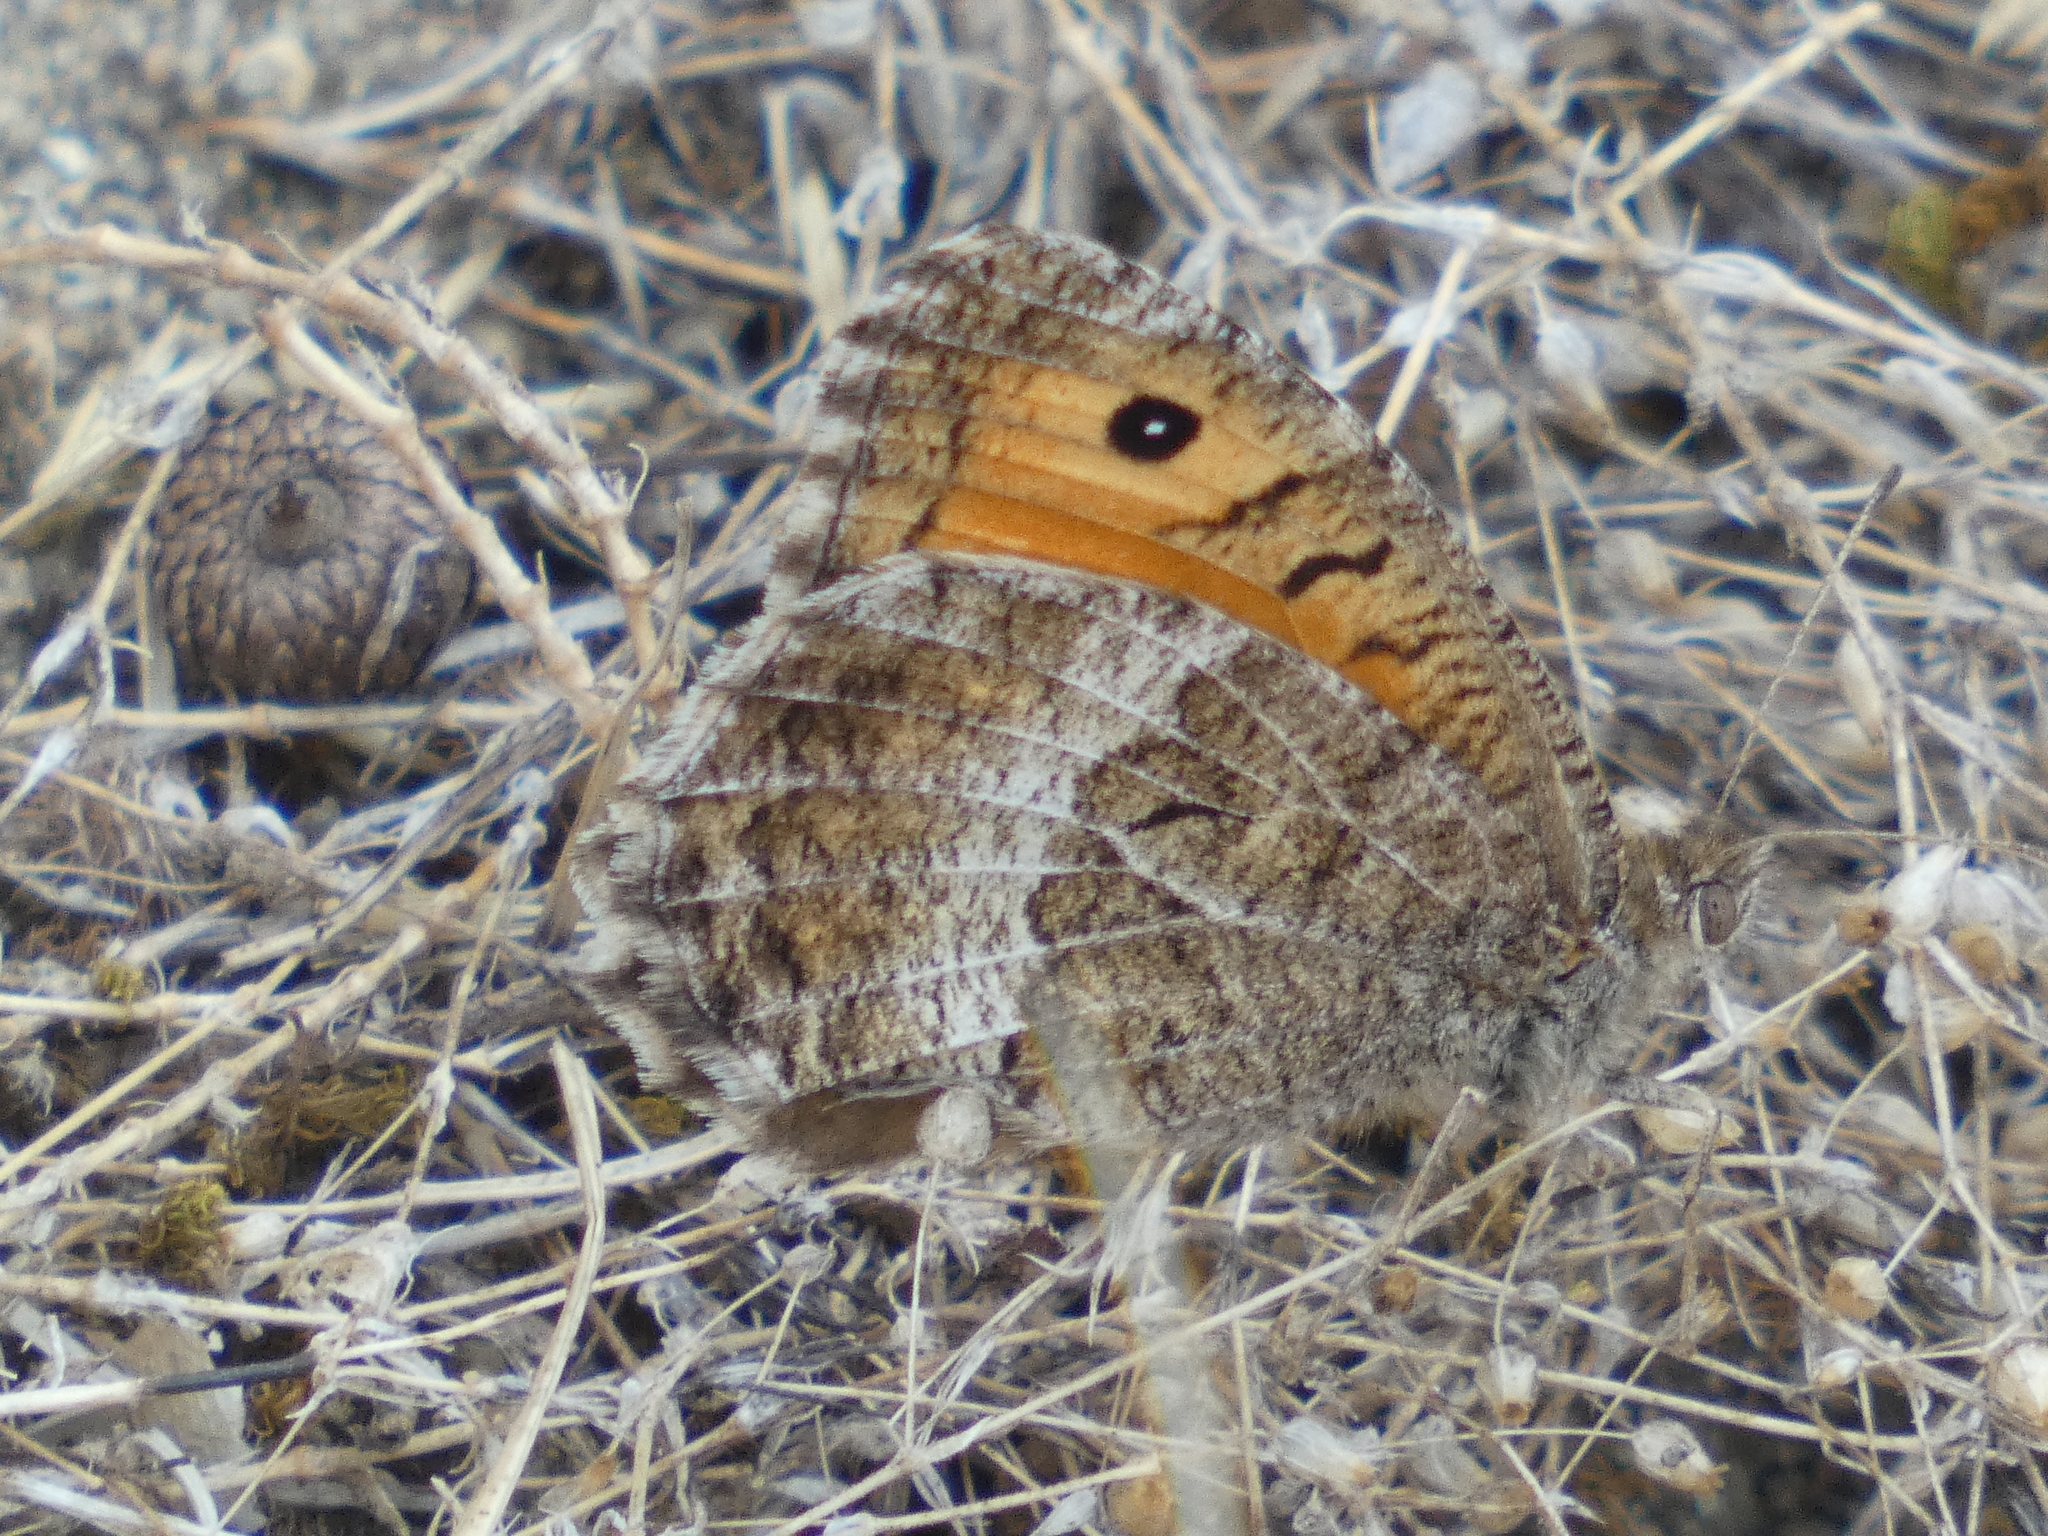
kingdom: Animalia
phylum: Arthropoda
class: Insecta
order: Lepidoptera
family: Nymphalidae
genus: Arethusana
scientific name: Arethusana arethusa
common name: False grayling
